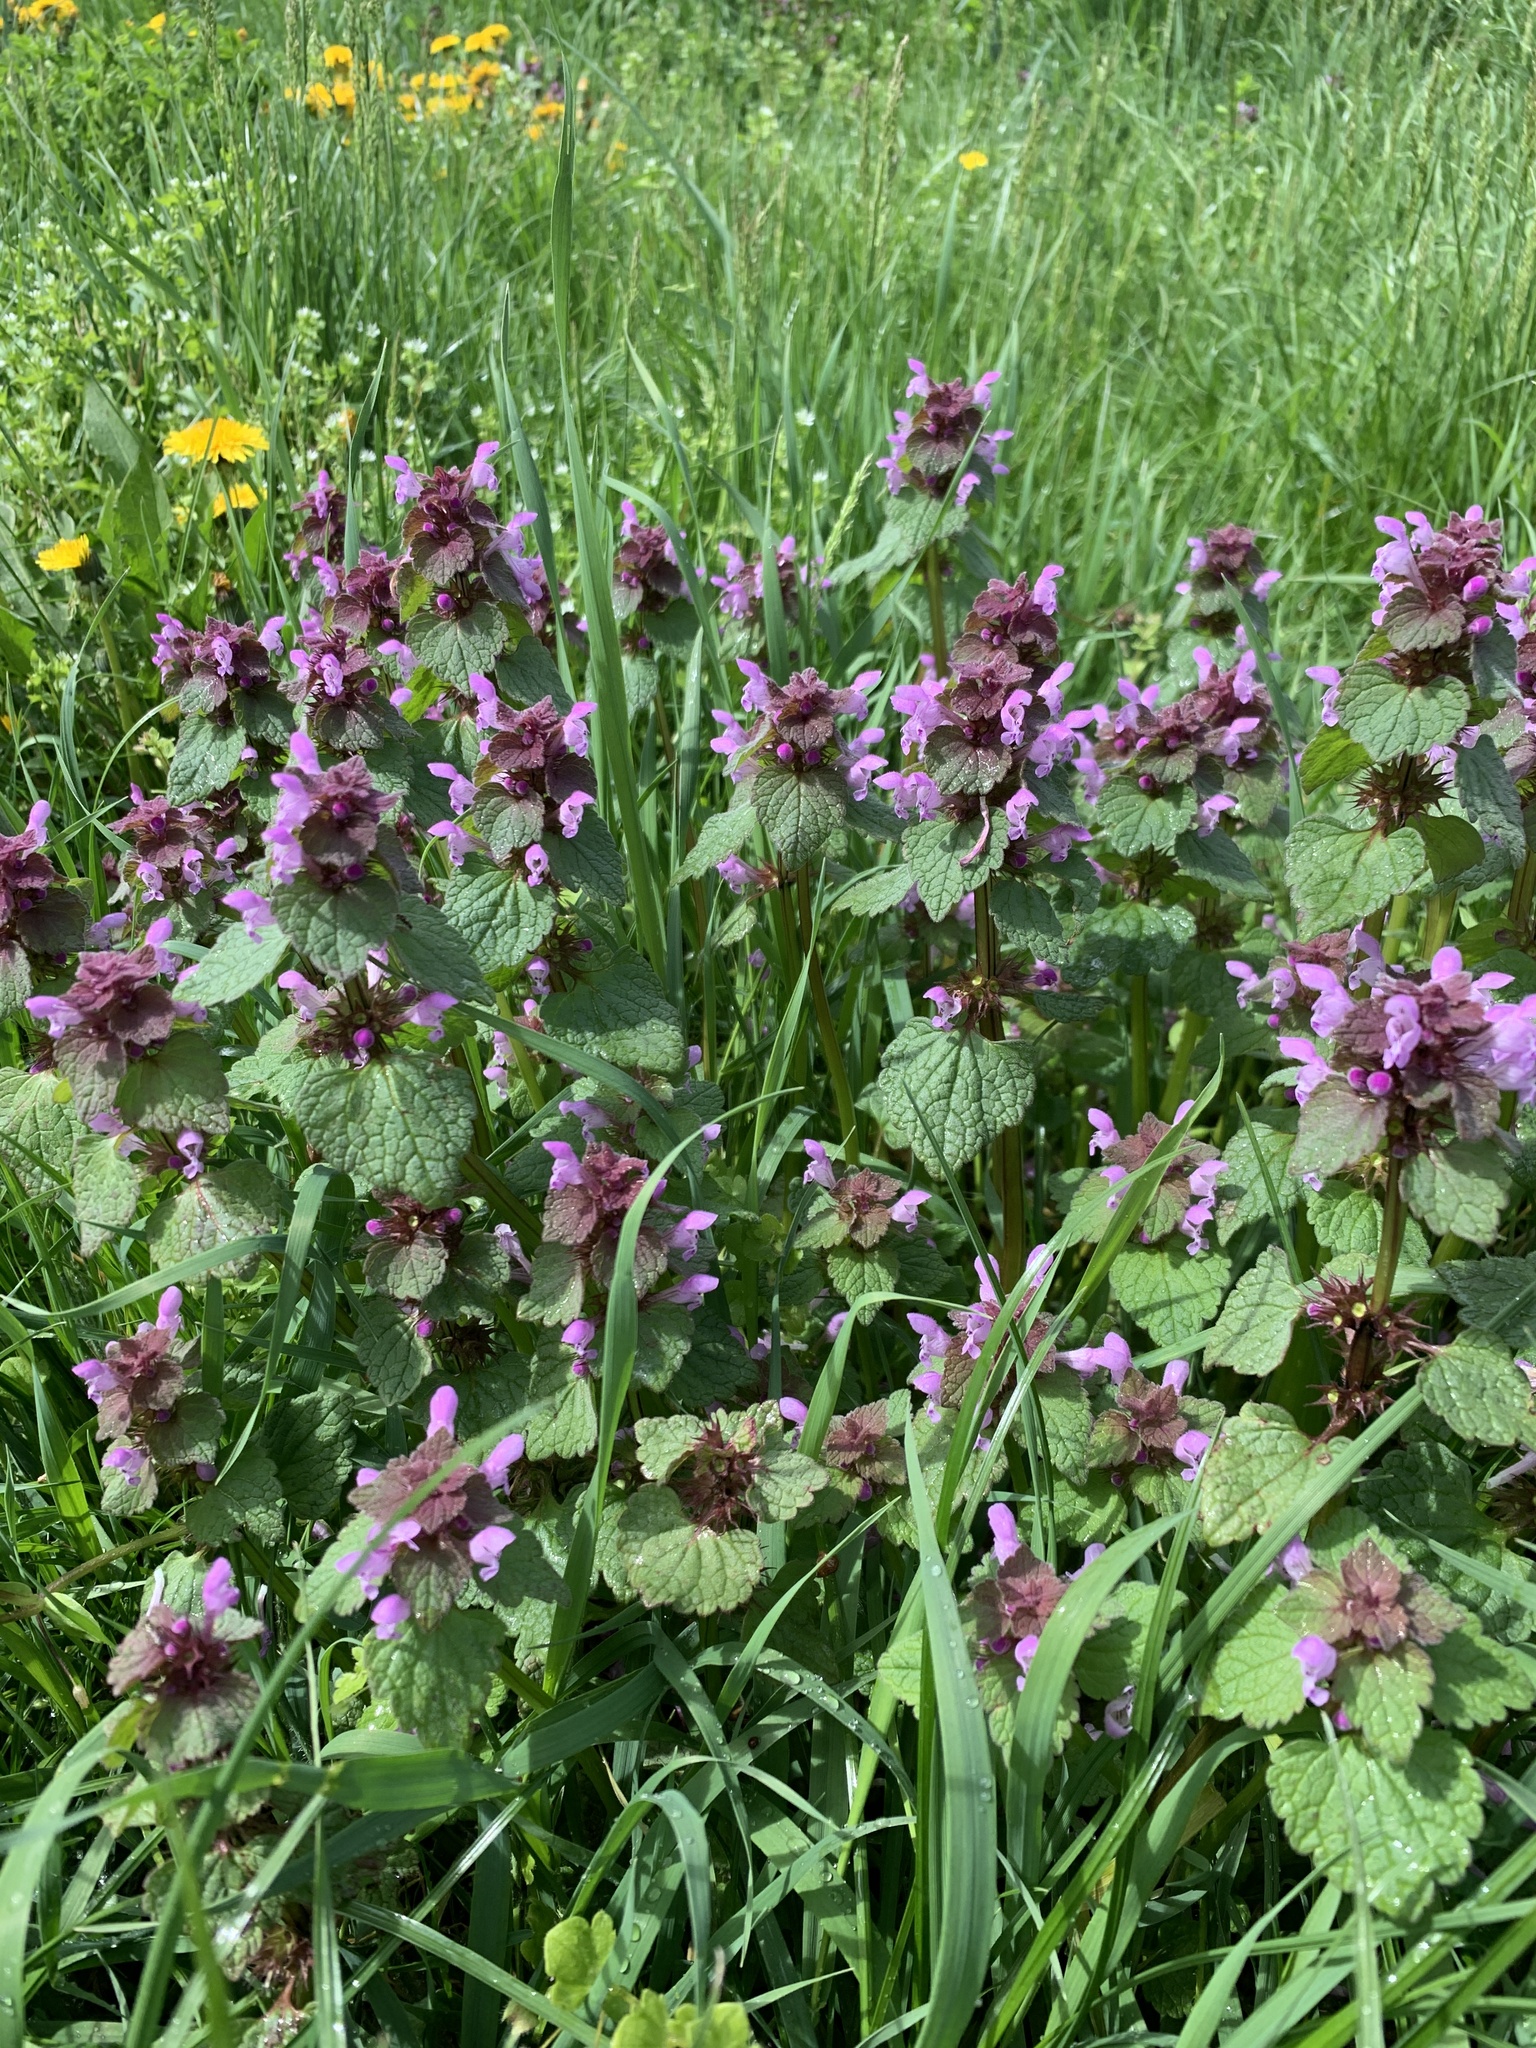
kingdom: Plantae
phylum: Tracheophyta
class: Magnoliopsida
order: Lamiales
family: Lamiaceae
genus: Lamium
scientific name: Lamium purpureum
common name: Red dead-nettle
